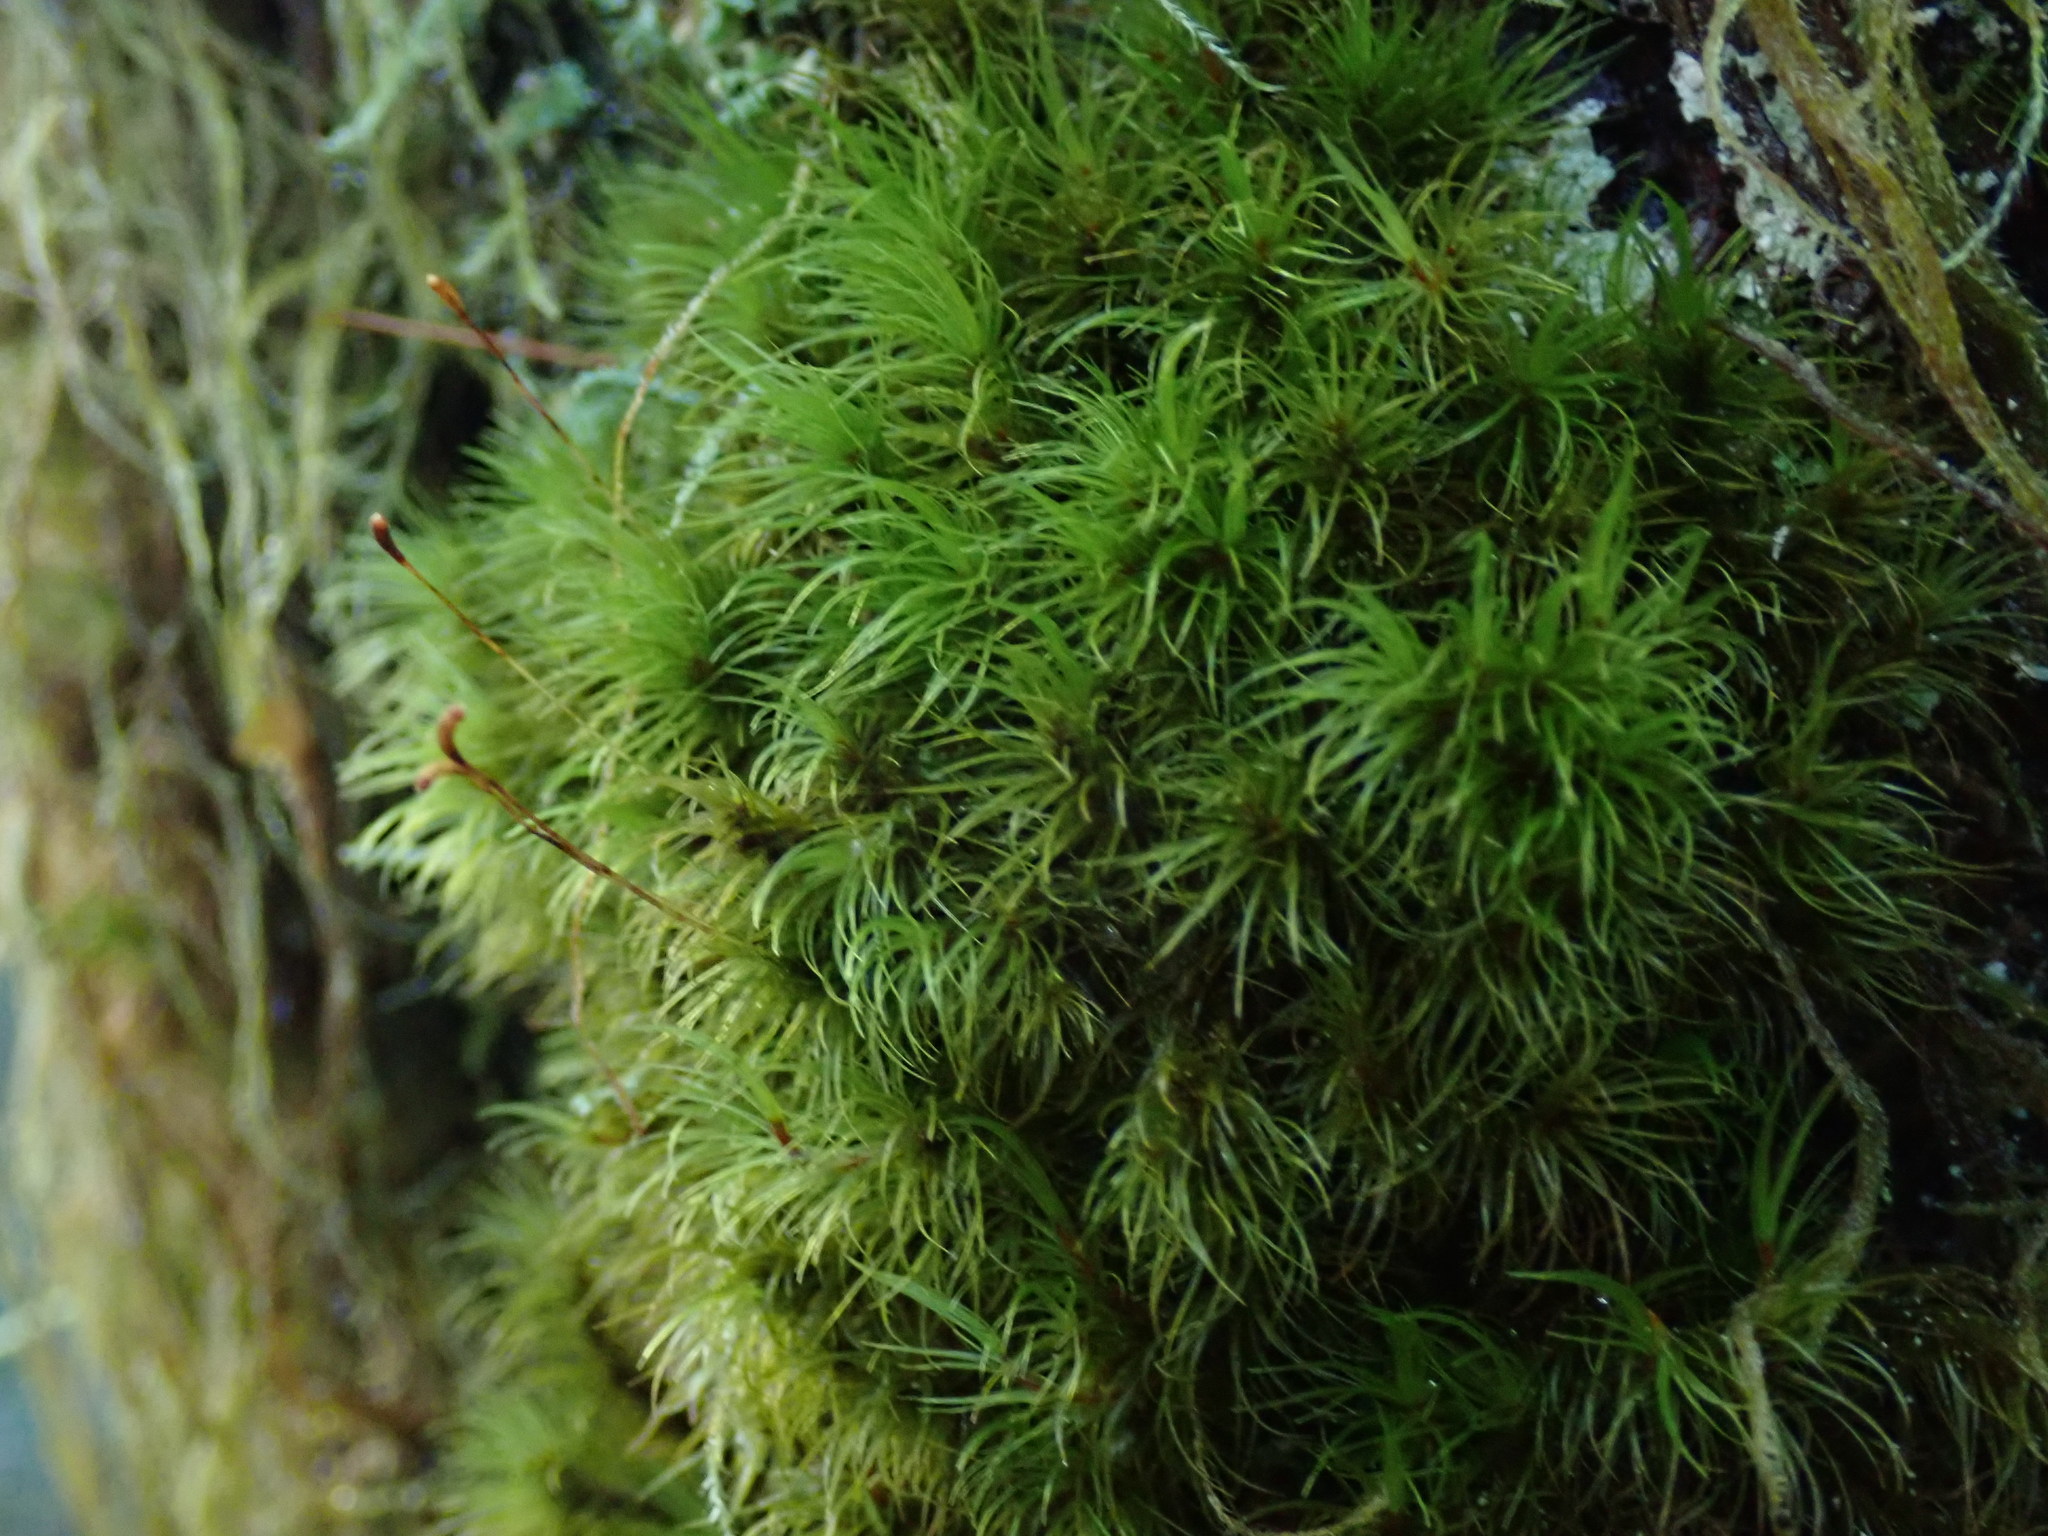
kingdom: Plantae
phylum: Bryophyta
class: Bryopsida
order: Dicranales
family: Dicranaceae
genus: Dicranum
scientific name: Dicranum fuscescens
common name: Curly heron's-bill moss
